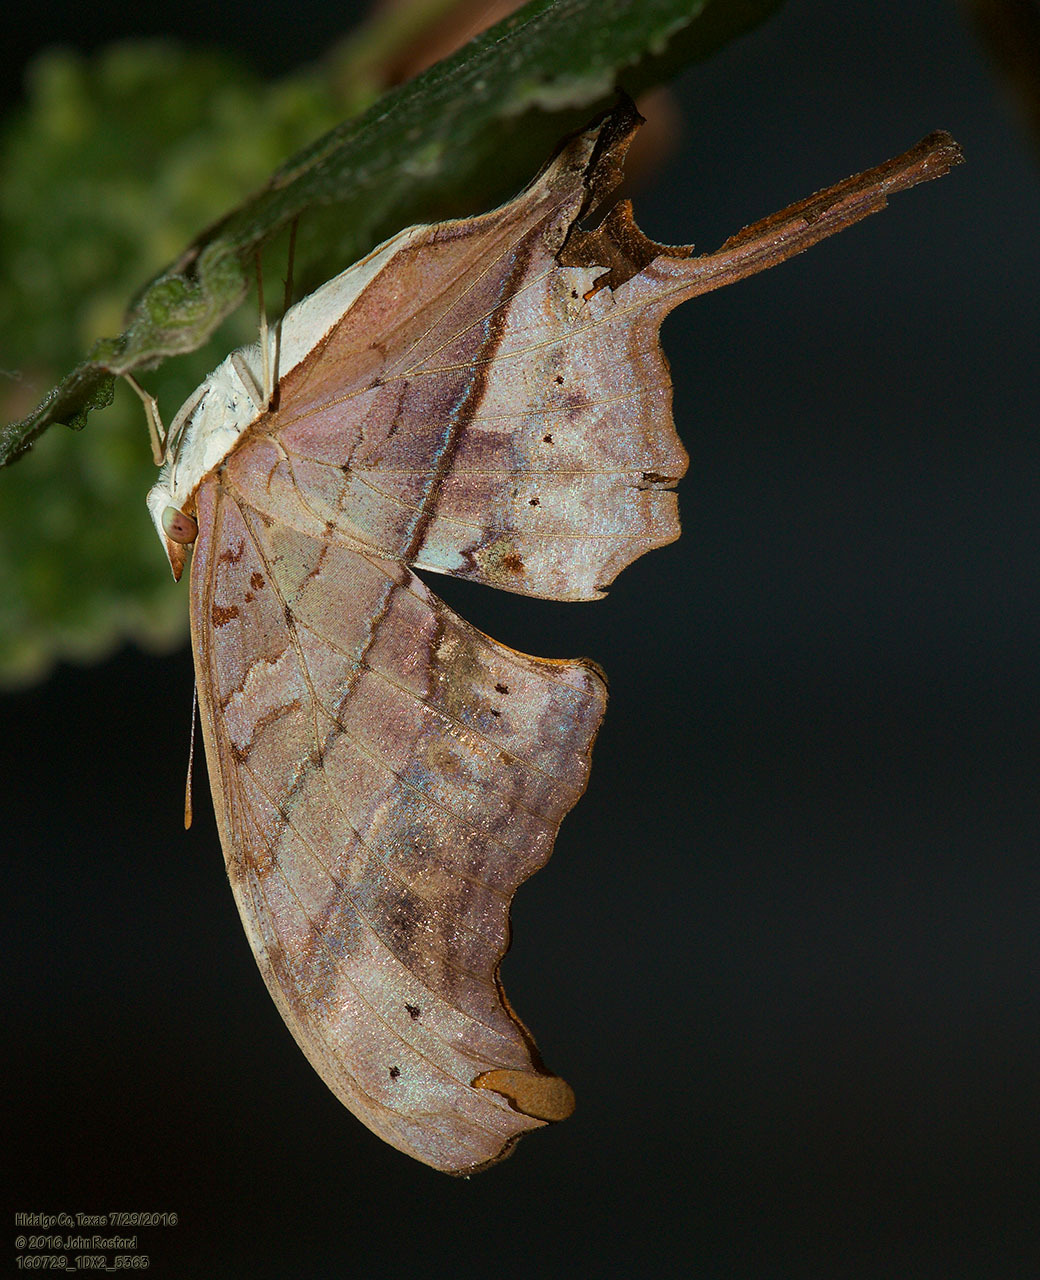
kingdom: Animalia
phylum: Arthropoda
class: Insecta
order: Lepidoptera
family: Nymphalidae
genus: Marpesia
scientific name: Marpesia petreus
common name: Red dagger wing
